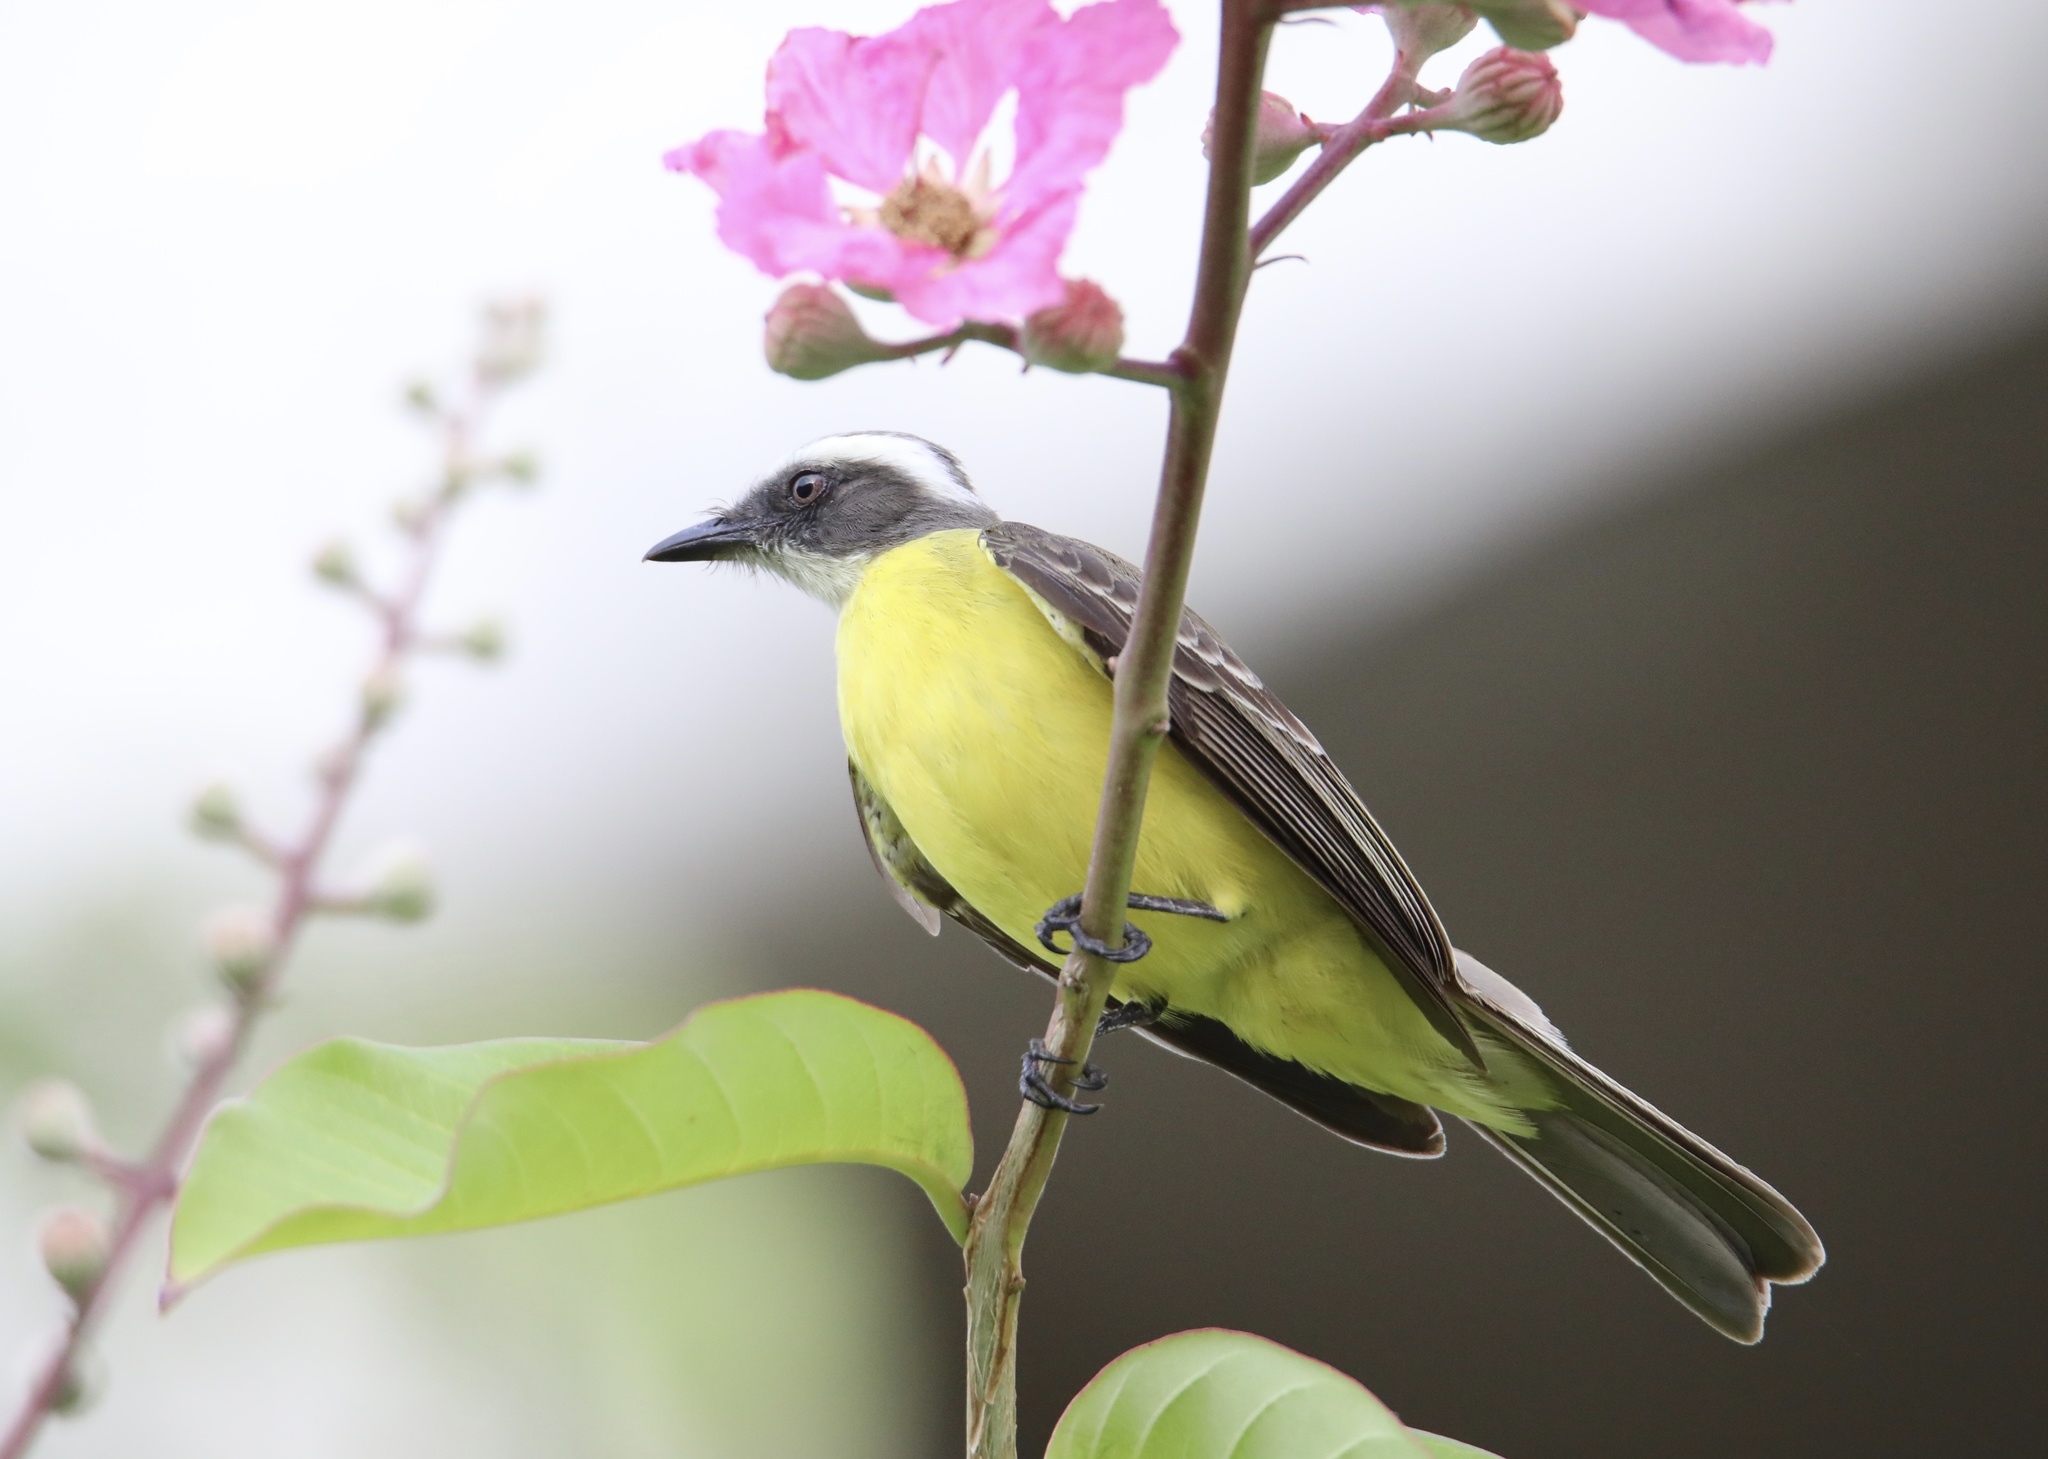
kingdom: Animalia
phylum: Chordata
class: Aves
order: Passeriformes
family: Tyrannidae
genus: Myiozetetes
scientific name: Myiozetetes similis
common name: Social flycatcher
